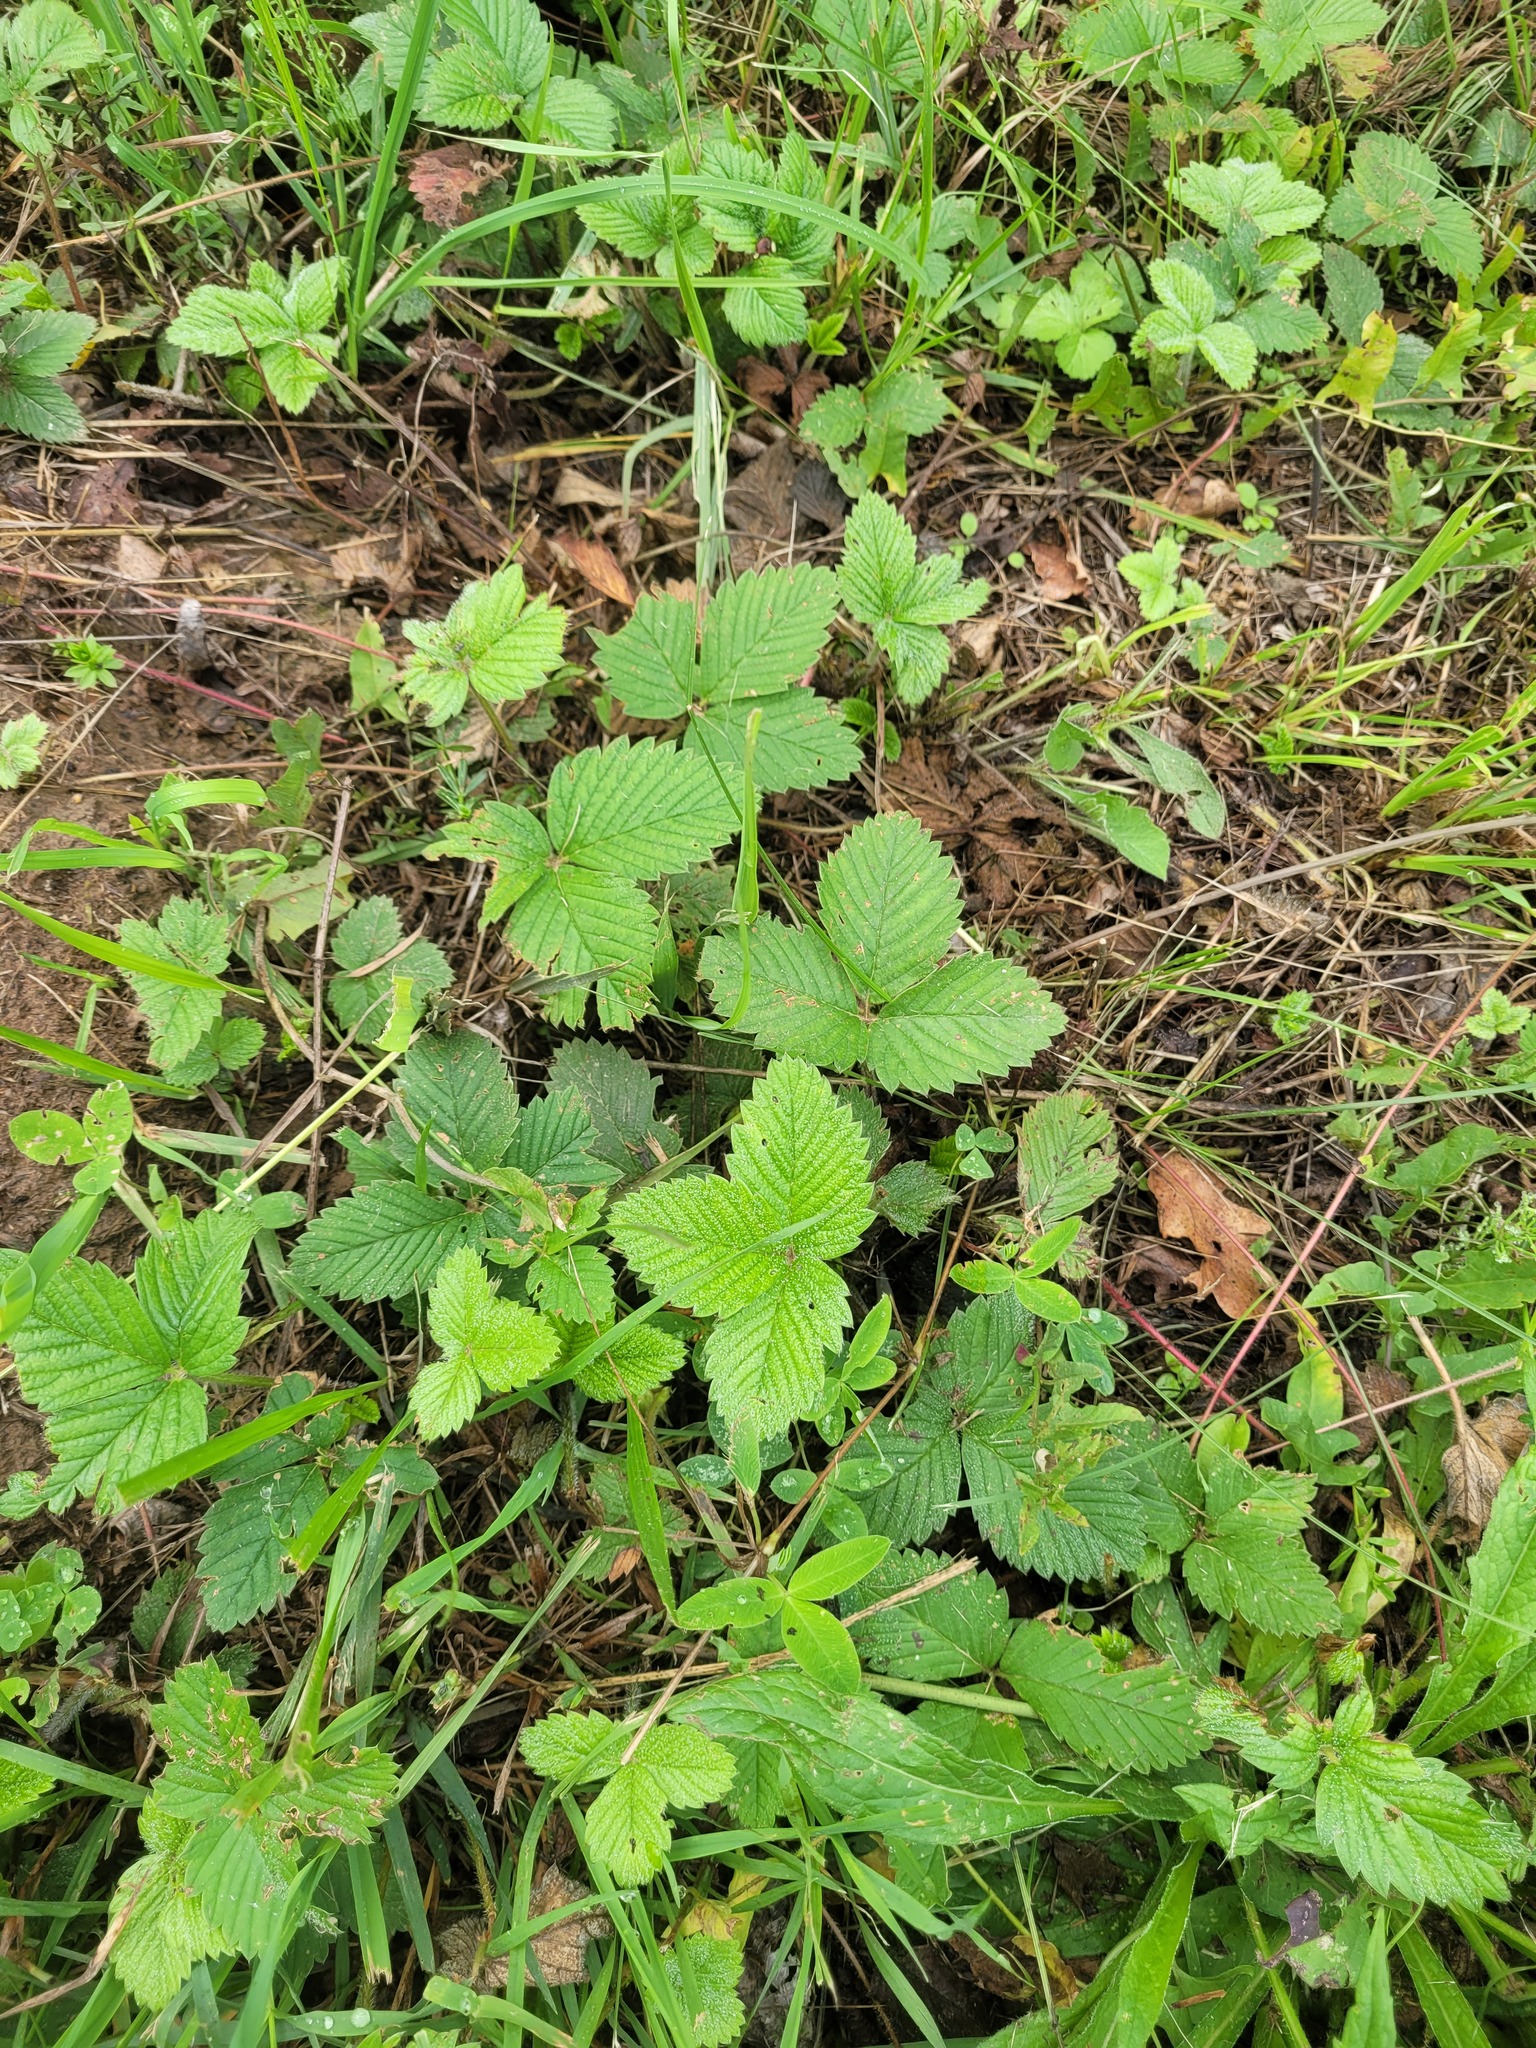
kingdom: Plantae
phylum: Tracheophyta
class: Magnoliopsida
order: Rosales
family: Rosaceae
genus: Fragaria
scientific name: Fragaria moschata
